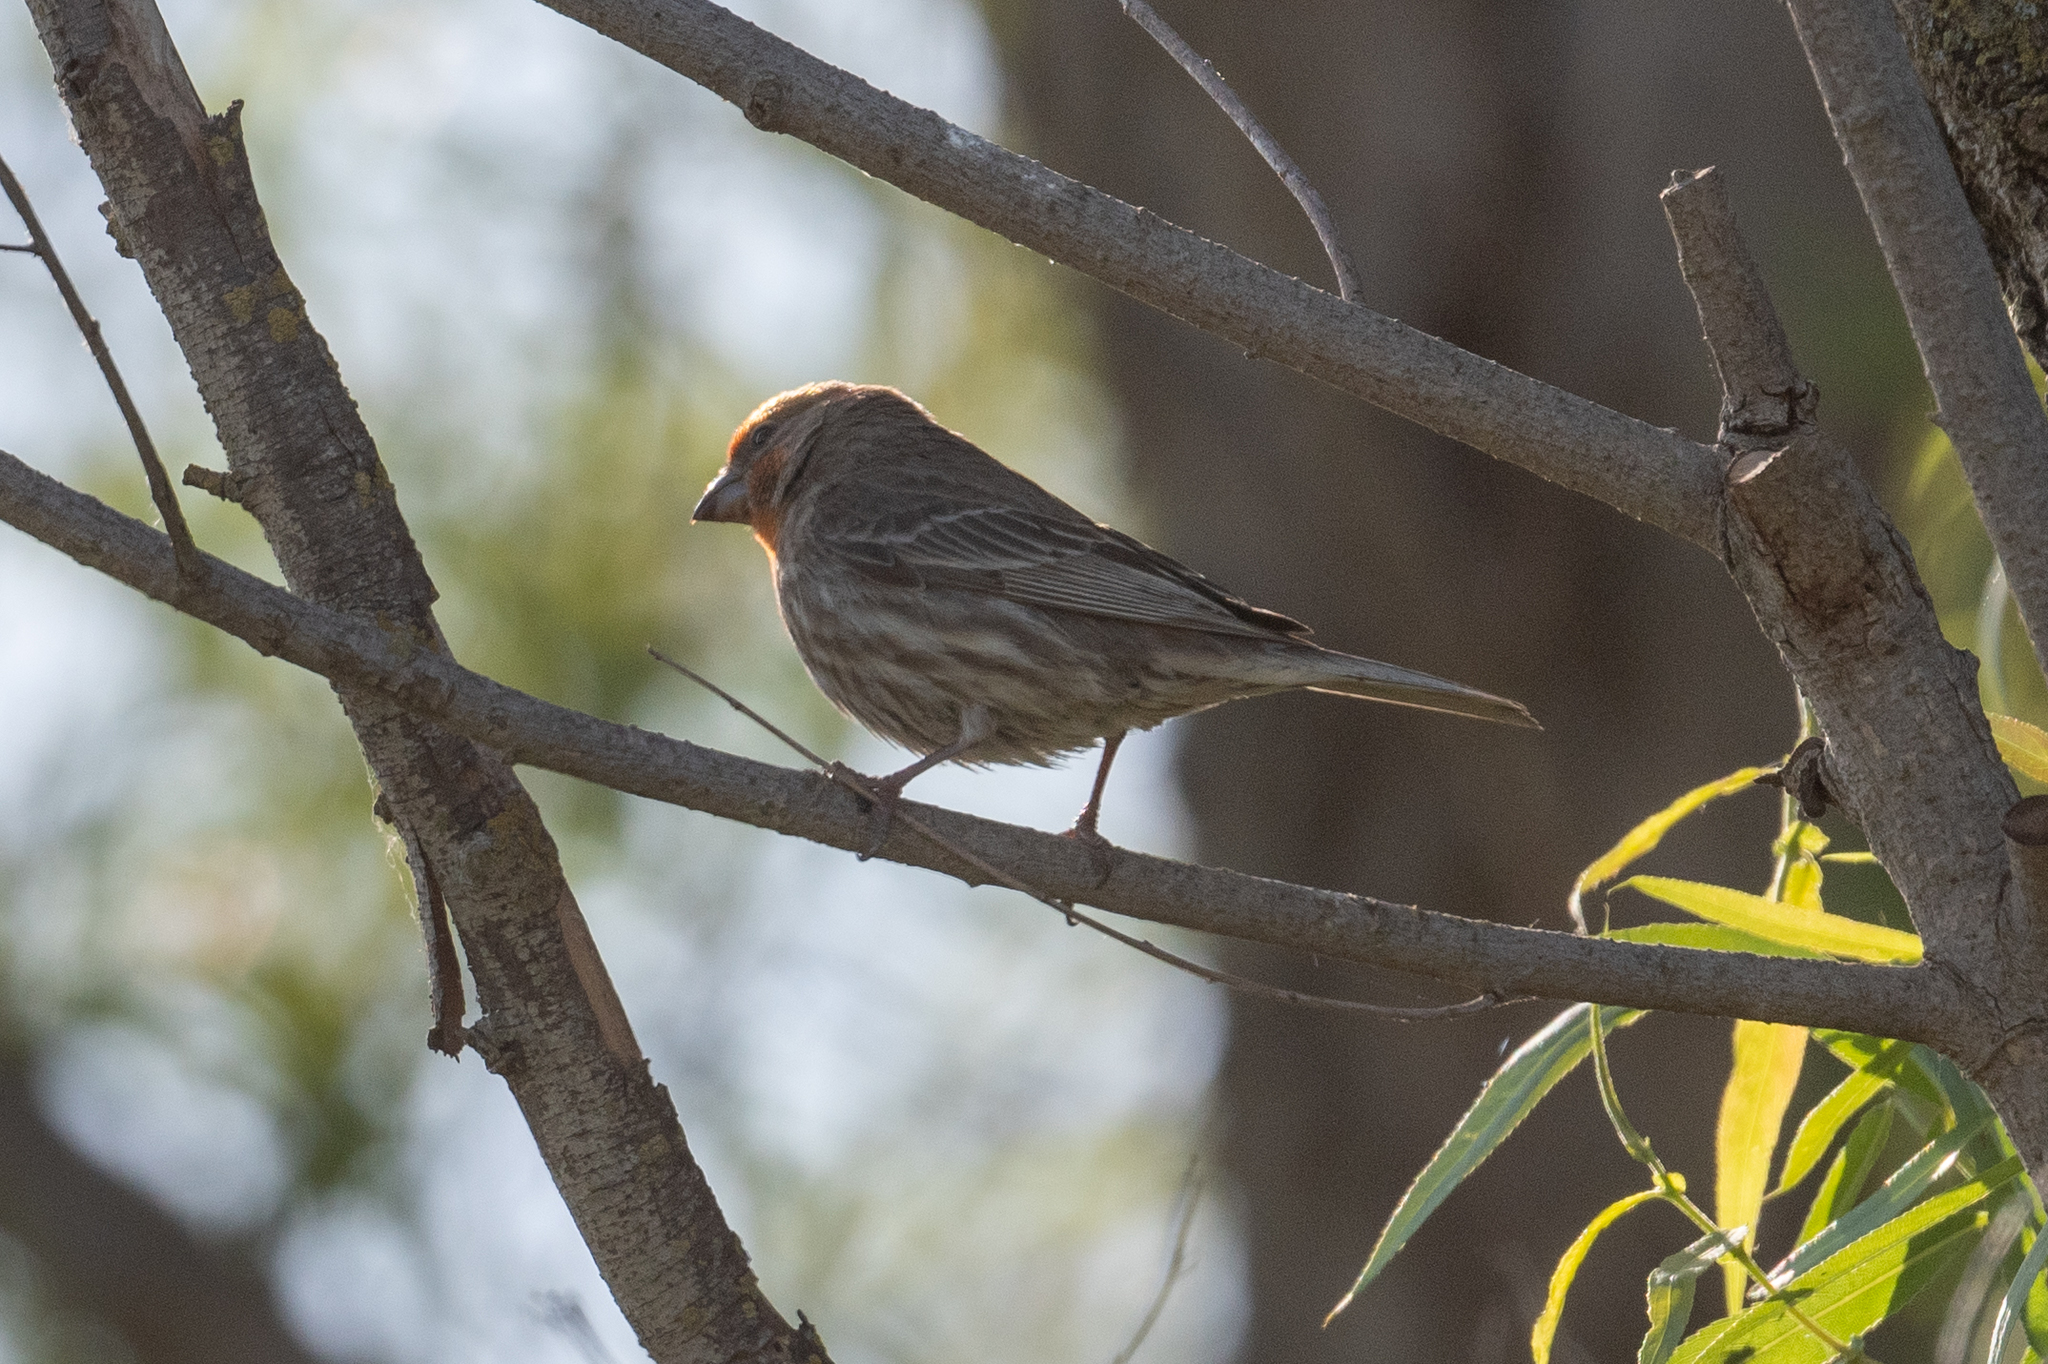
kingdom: Animalia
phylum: Chordata
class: Aves
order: Passeriformes
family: Fringillidae
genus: Haemorhous
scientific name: Haemorhous mexicanus
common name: House finch
